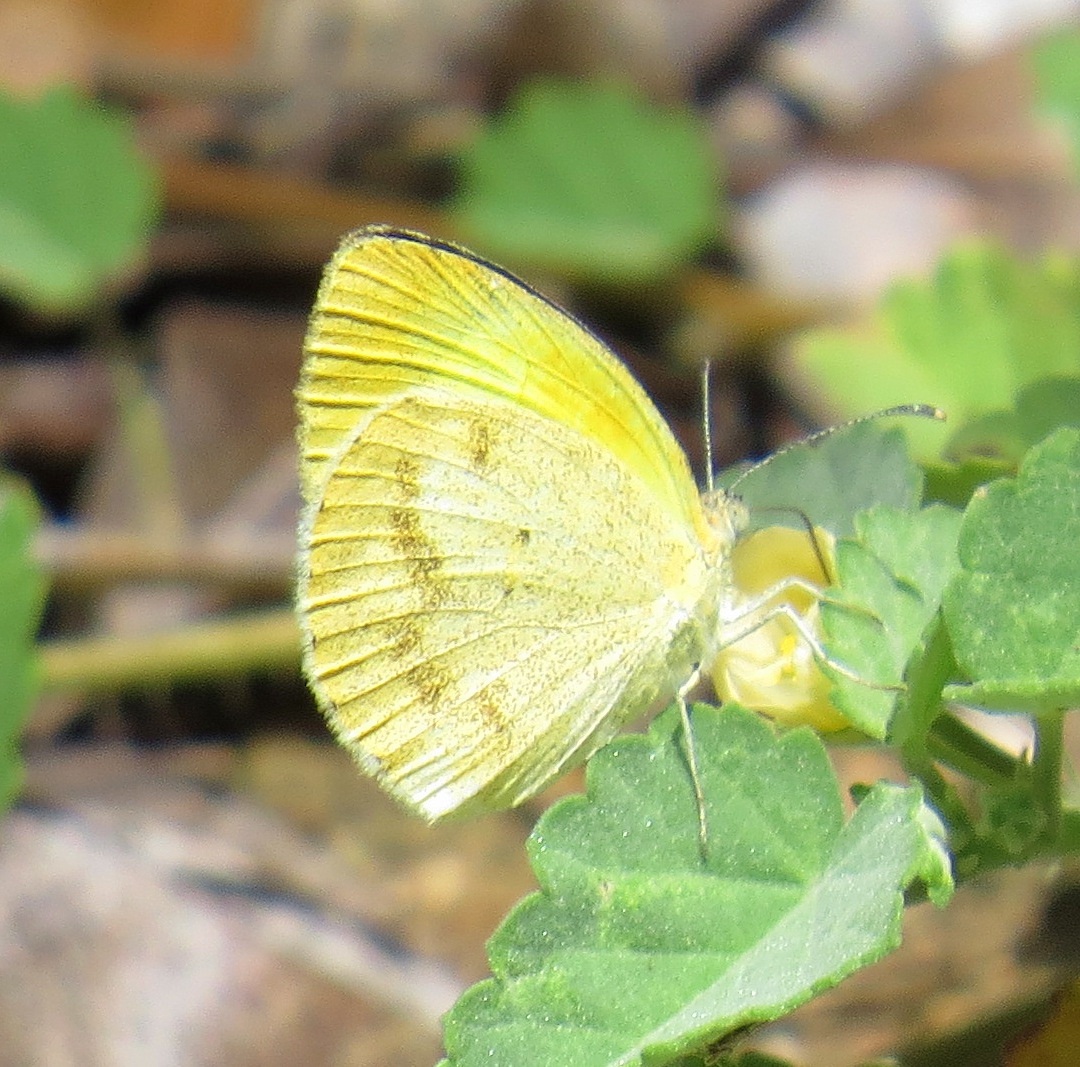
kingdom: Animalia
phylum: Arthropoda
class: Insecta
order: Lepidoptera
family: Pieridae
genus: Eurema
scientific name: Eurema daira
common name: Barred sulphur
